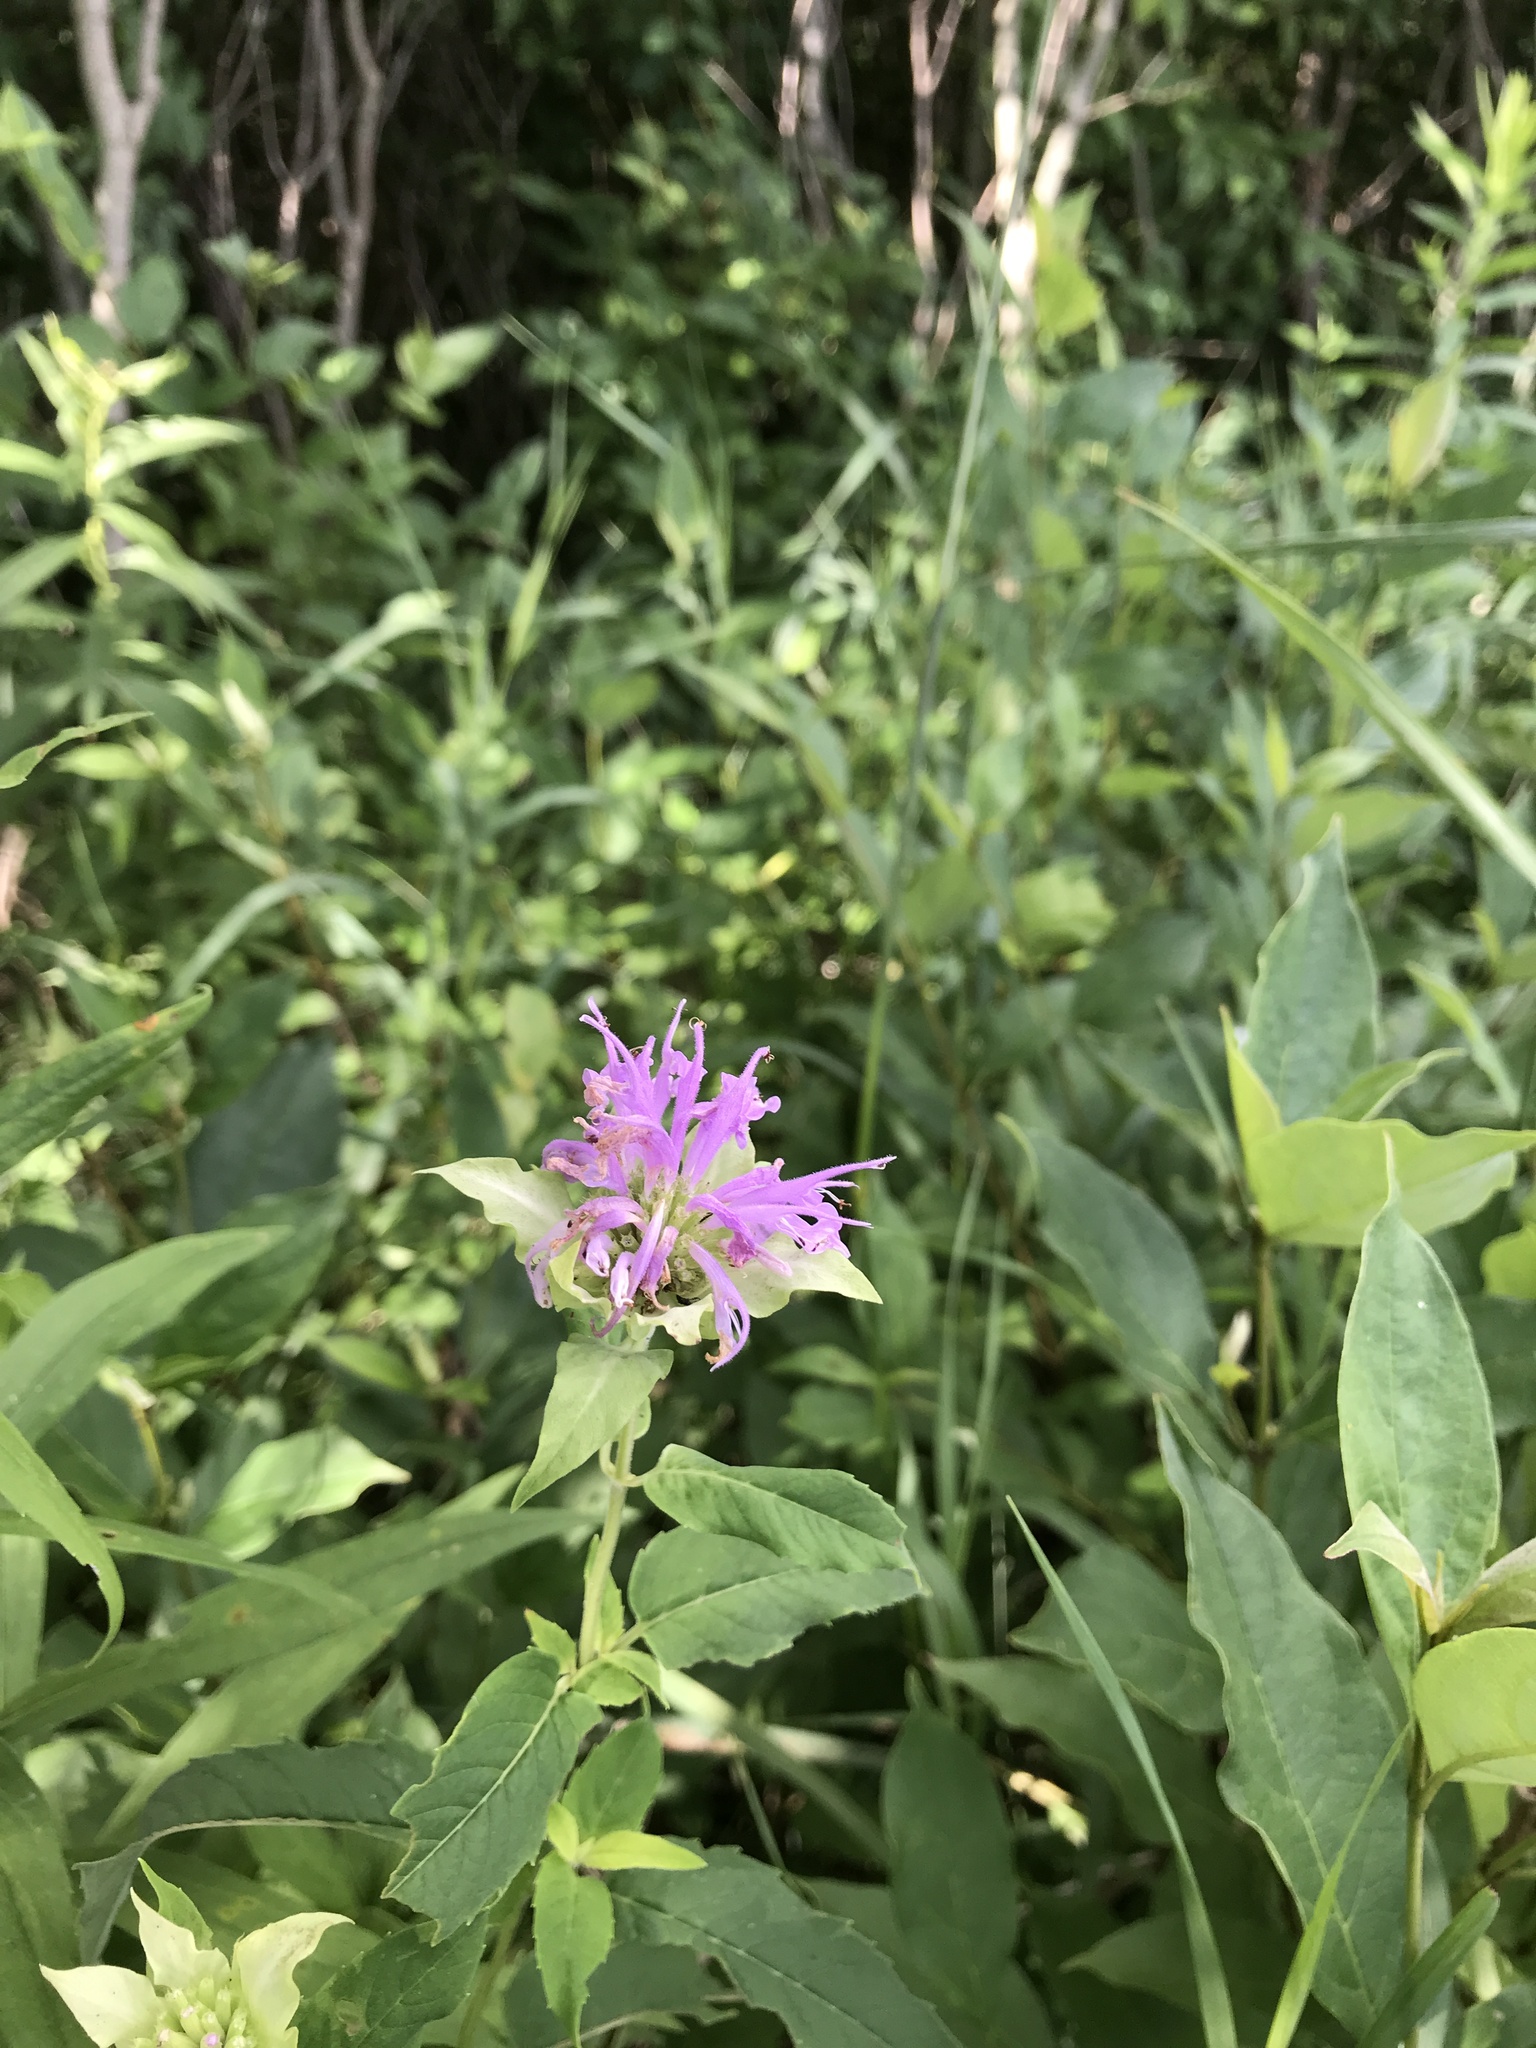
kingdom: Plantae
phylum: Tracheophyta
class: Magnoliopsida
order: Lamiales
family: Lamiaceae
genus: Monarda
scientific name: Monarda fistulosa
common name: Purple beebalm
